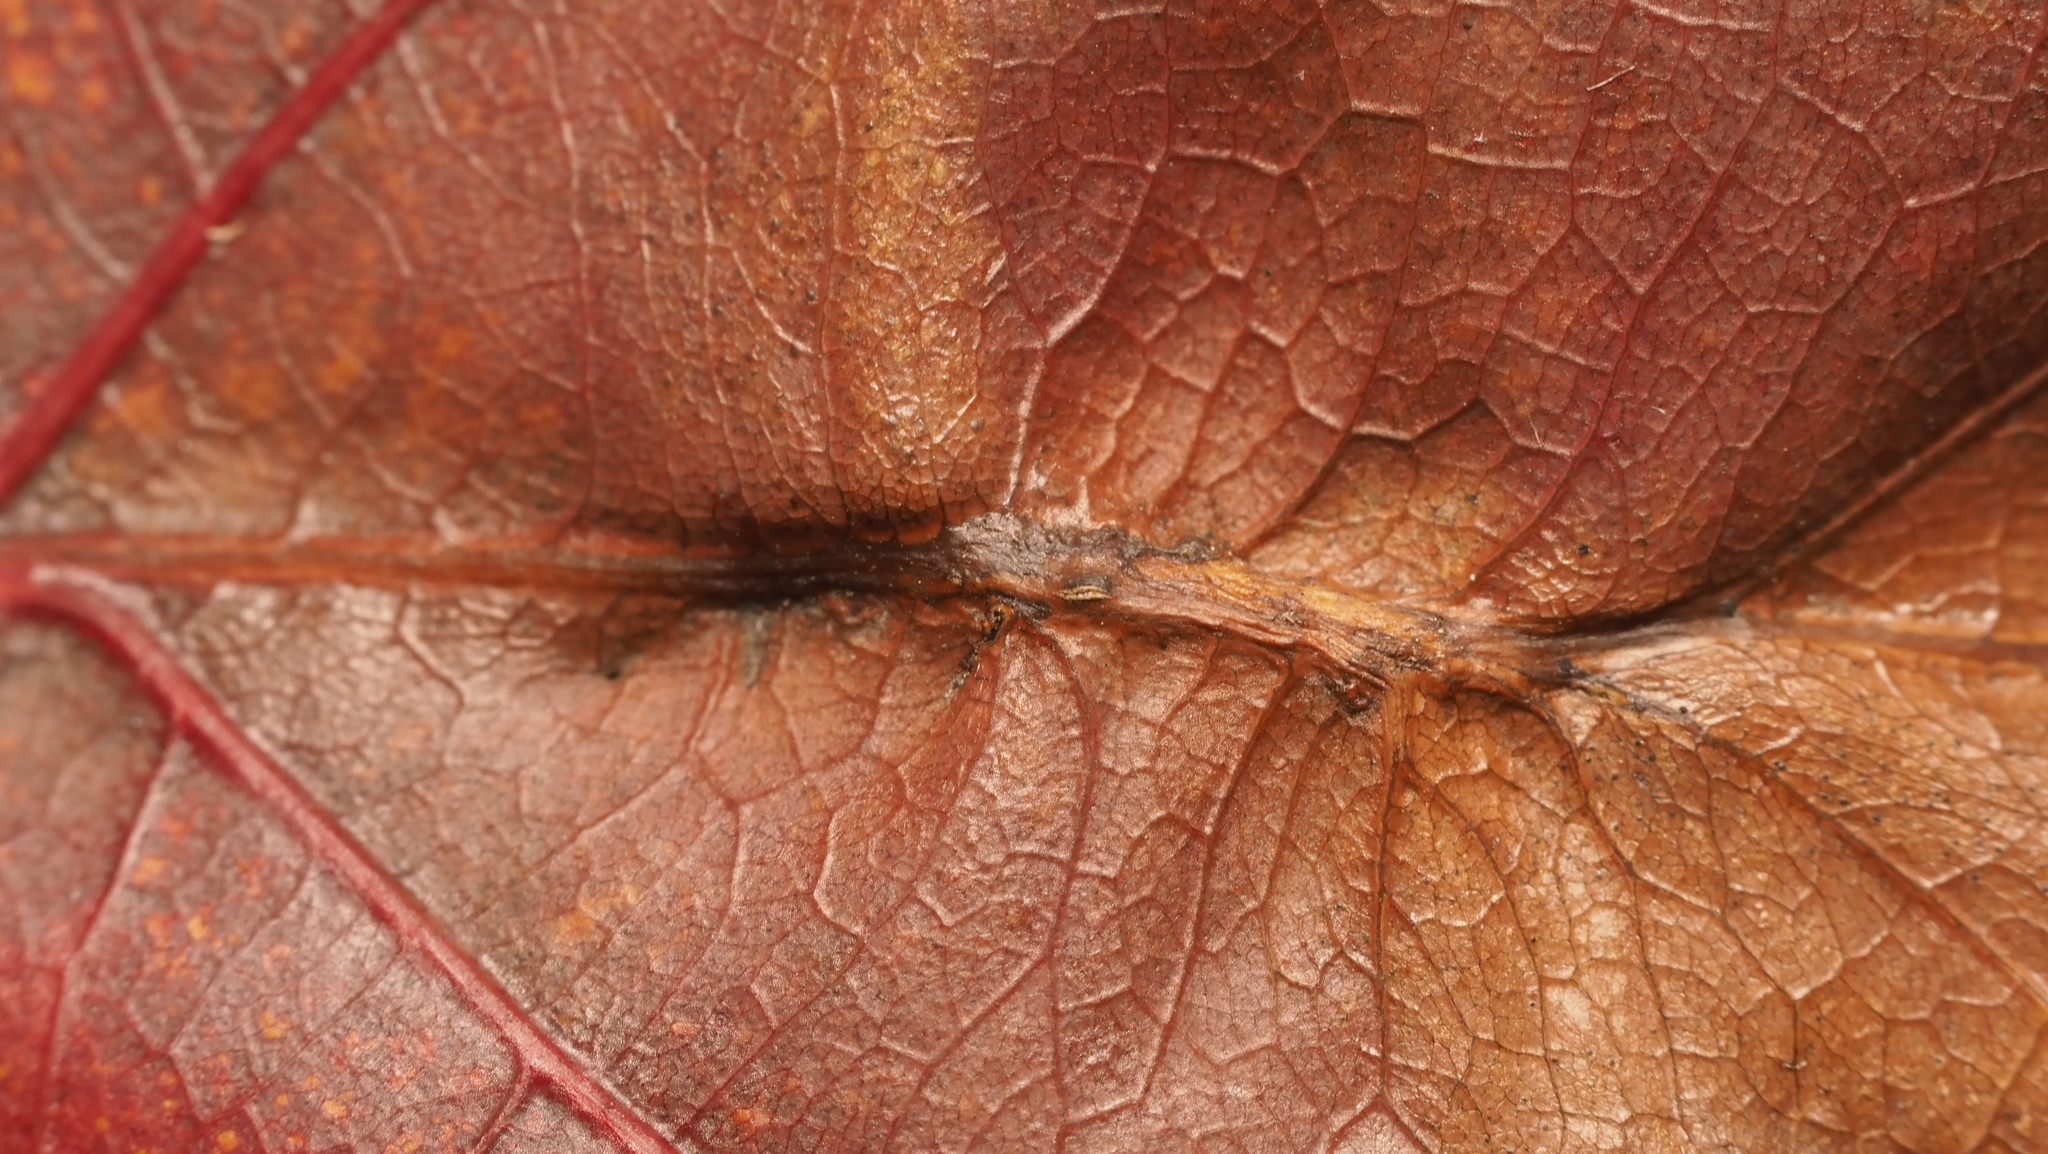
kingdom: Animalia
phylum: Arthropoda
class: Insecta
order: Hemiptera
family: Kermesidae
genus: Nanokermes
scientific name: Nanokermes folium
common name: Leaf kermes
